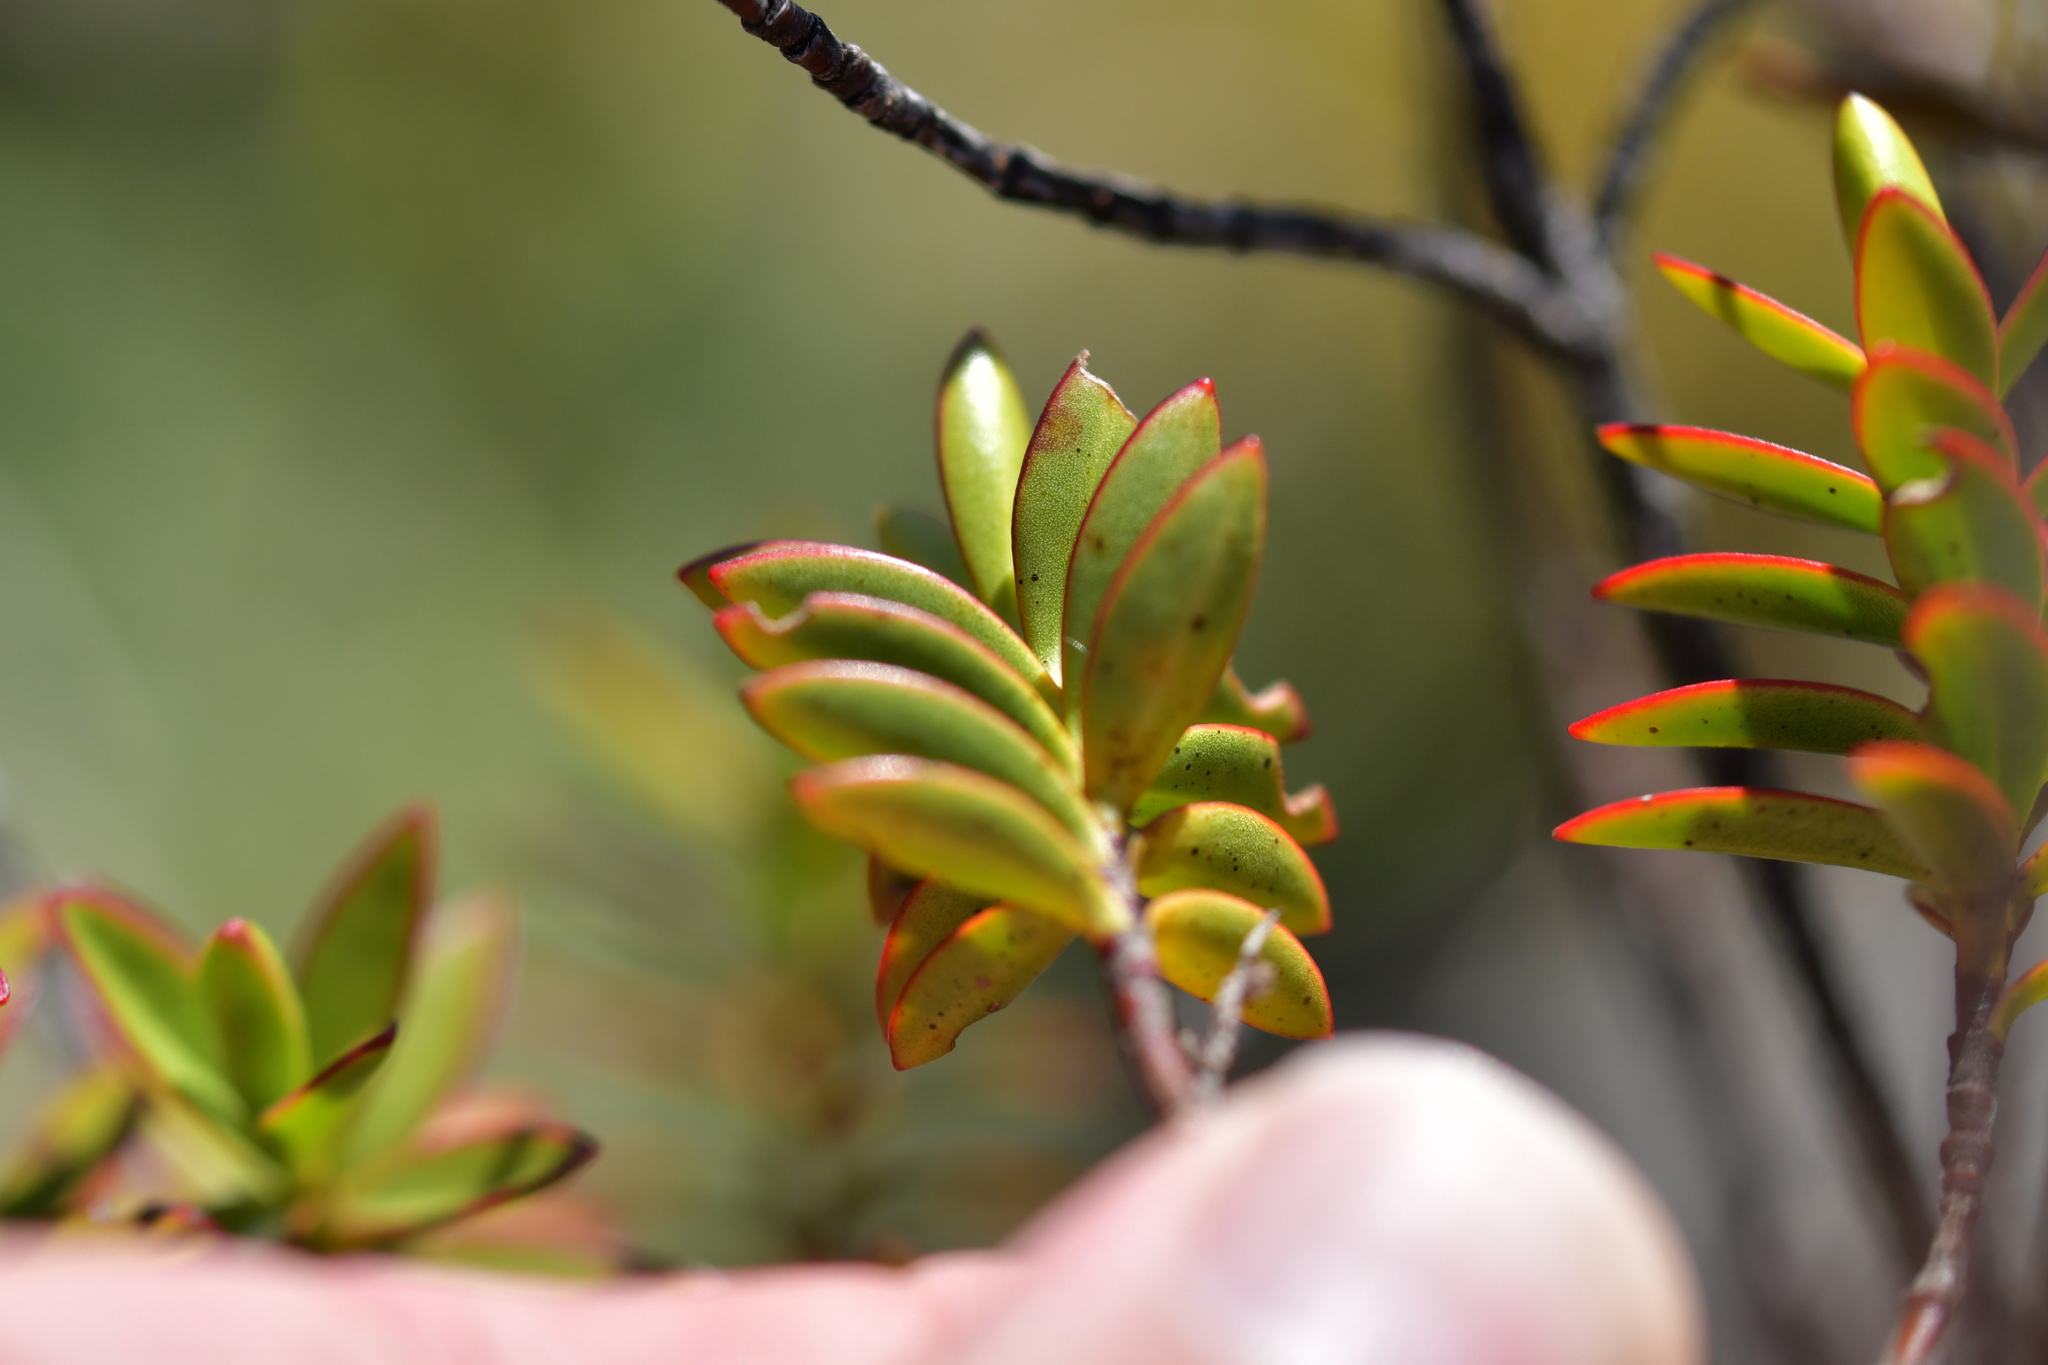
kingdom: Plantae
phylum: Tracheophyta
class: Magnoliopsida
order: Lamiales
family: Plantaginaceae
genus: Veronica
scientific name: Veronica decumbens
